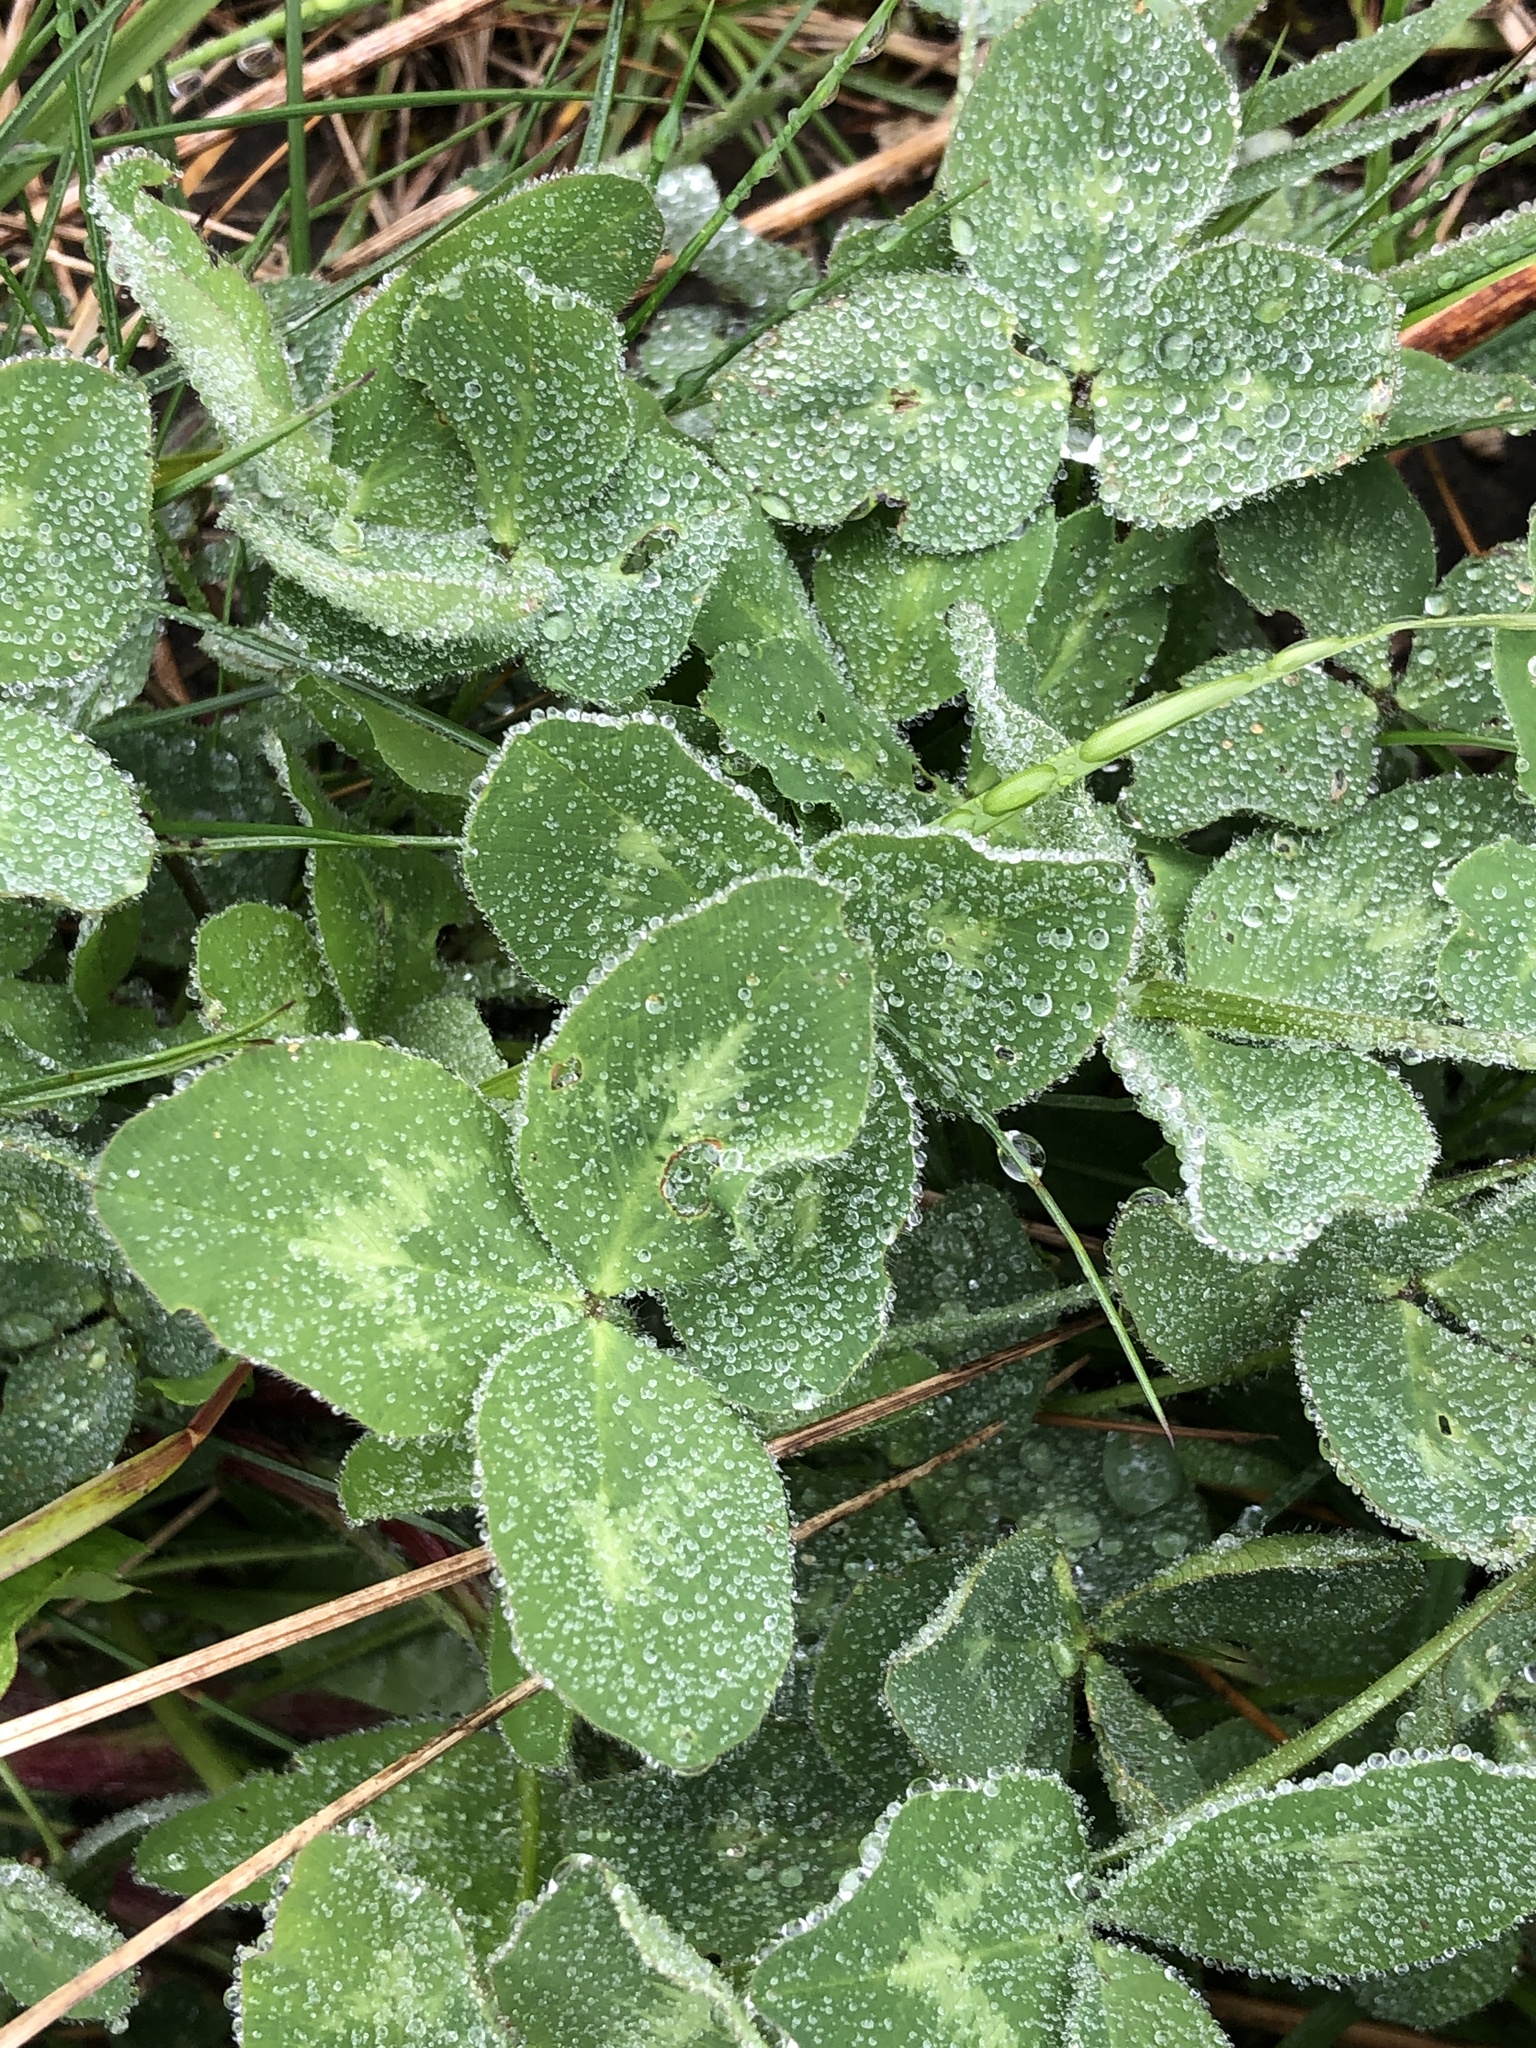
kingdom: Plantae
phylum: Tracheophyta
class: Magnoliopsida
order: Fabales
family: Fabaceae
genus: Trifolium
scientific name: Trifolium pratense
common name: Red clover
